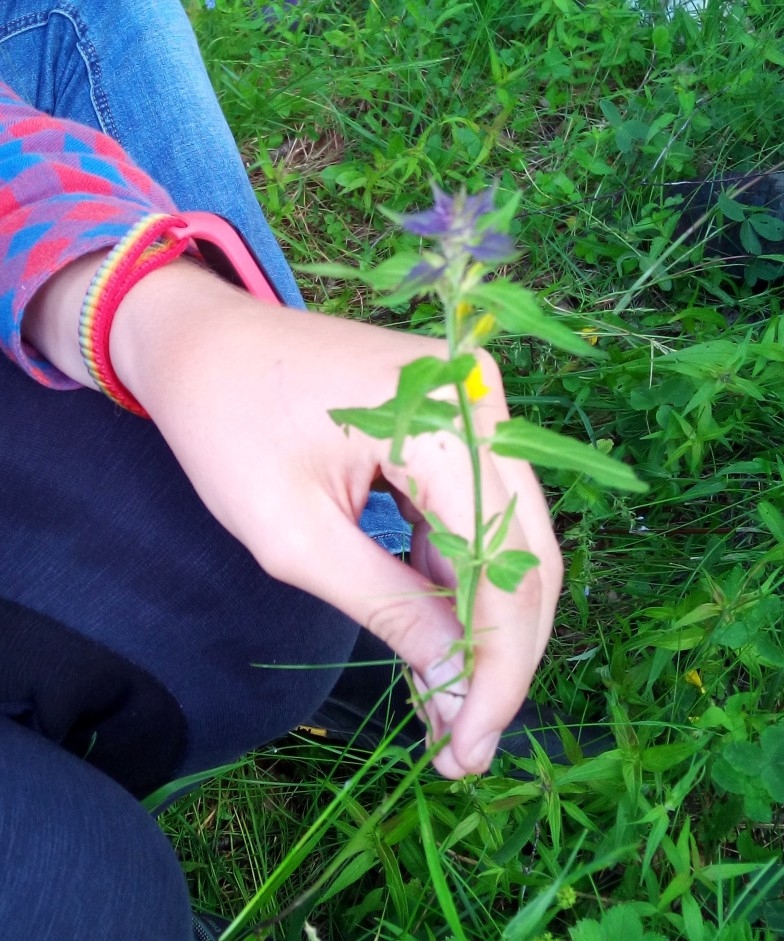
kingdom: Plantae
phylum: Tracheophyta
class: Magnoliopsida
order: Lamiales
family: Orobanchaceae
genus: Melampyrum
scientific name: Melampyrum nemorosum
